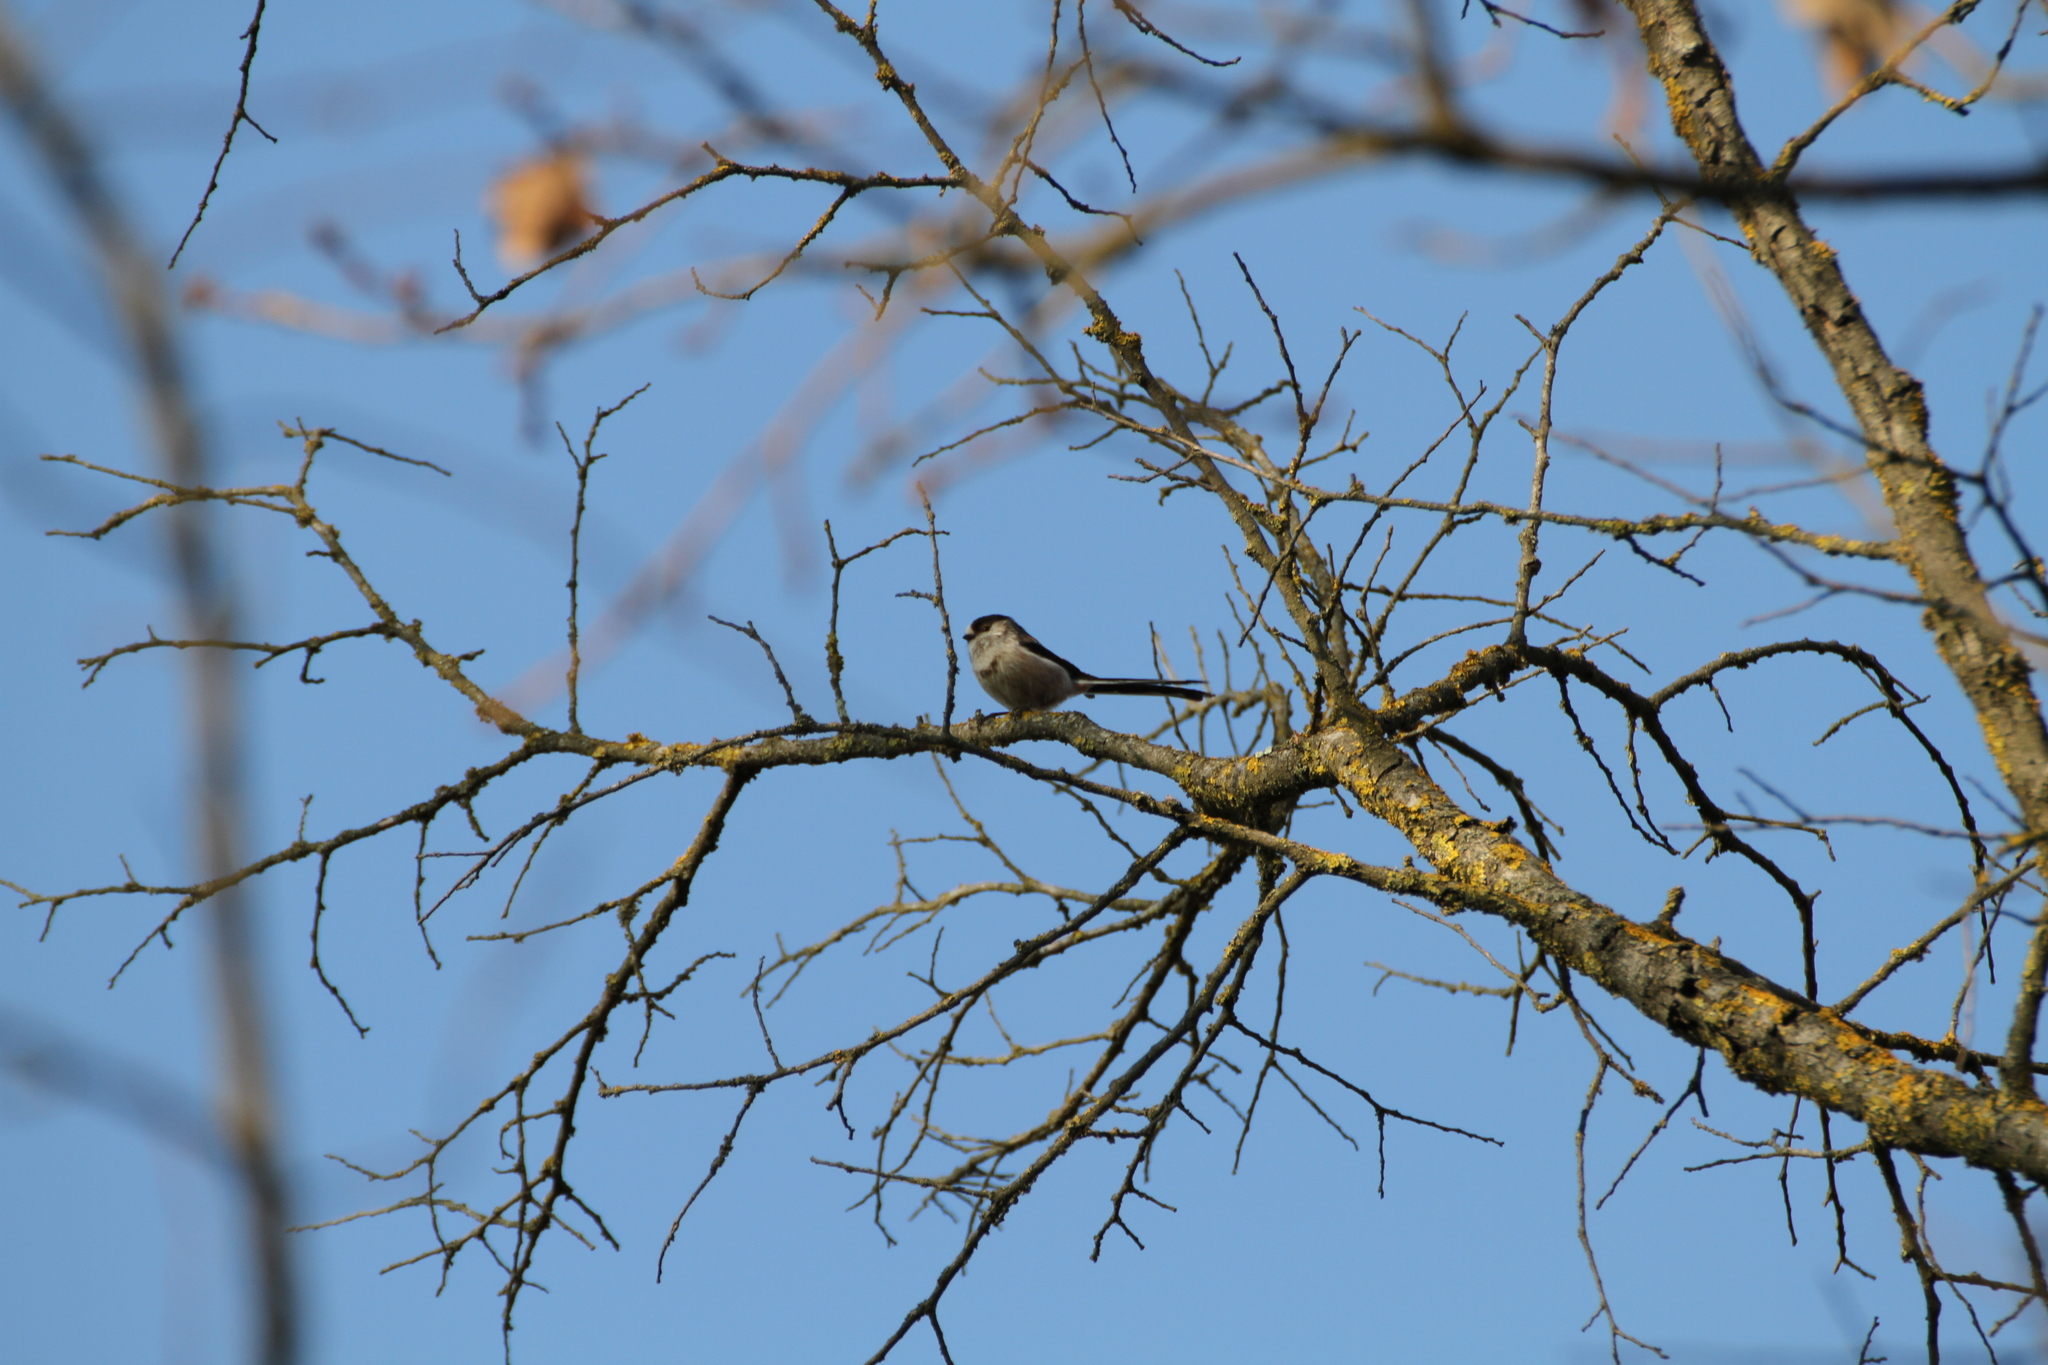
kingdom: Animalia
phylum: Chordata
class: Aves
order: Passeriformes
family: Aegithalidae
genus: Aegithalos
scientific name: Aegithalos caudatus
